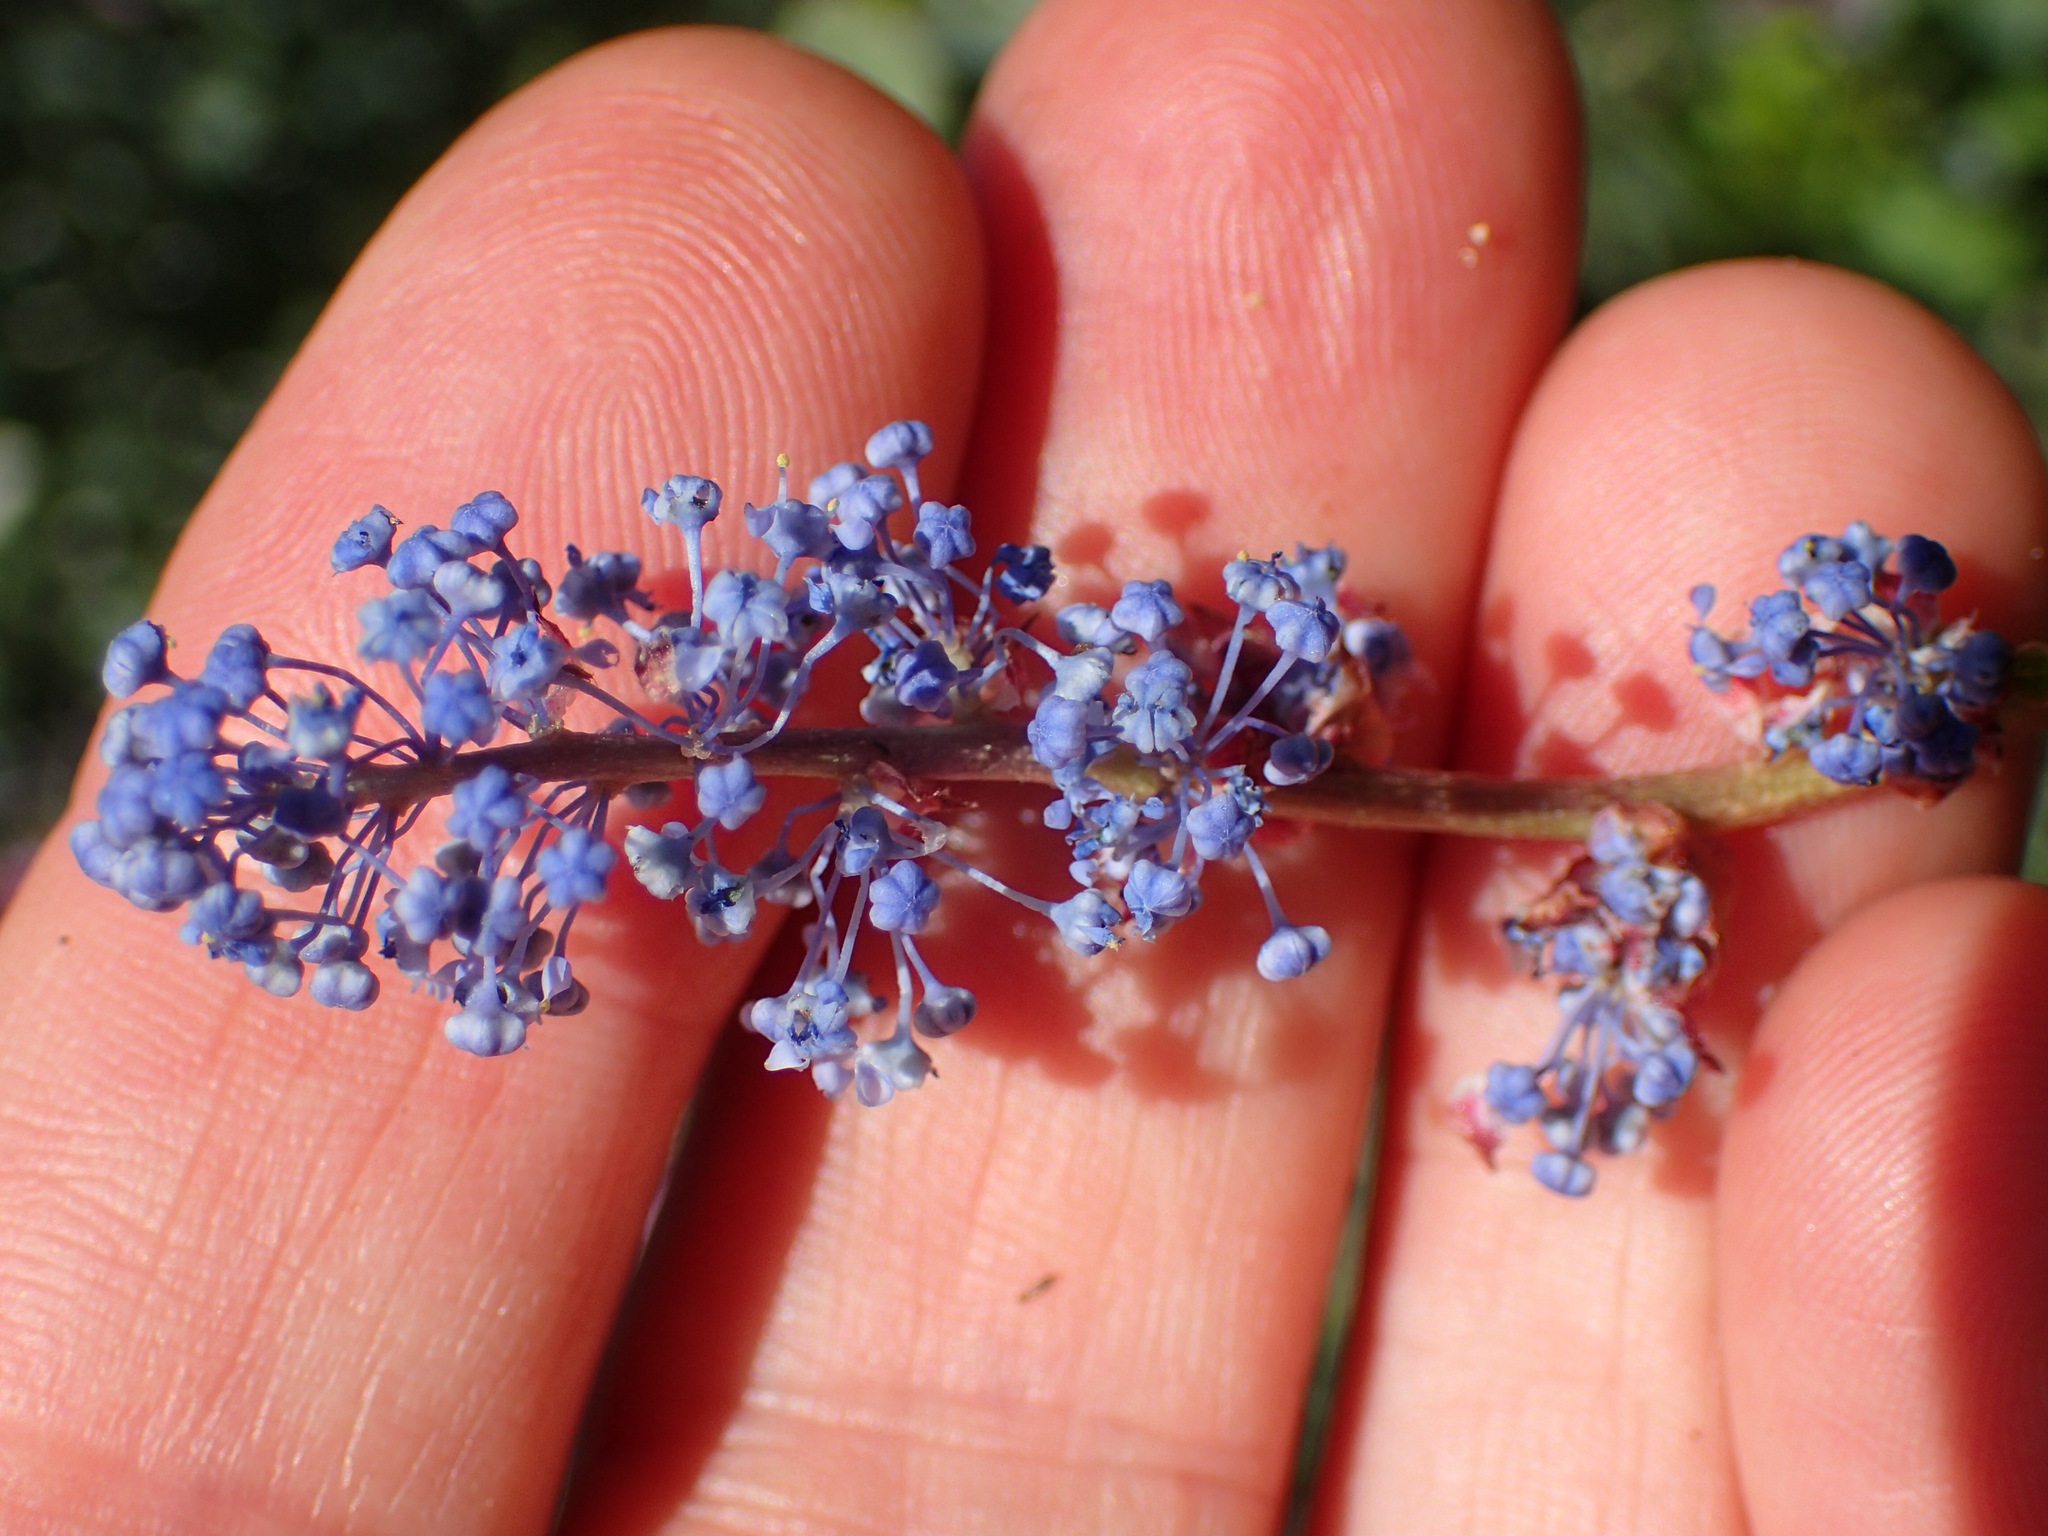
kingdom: Plantae
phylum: Tracheophyta
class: Magnoliopsida
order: Rosales
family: Rhamnaceae
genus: Ceanothus
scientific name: Ceanothus leucodermis
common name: Chaparral whitethorn
